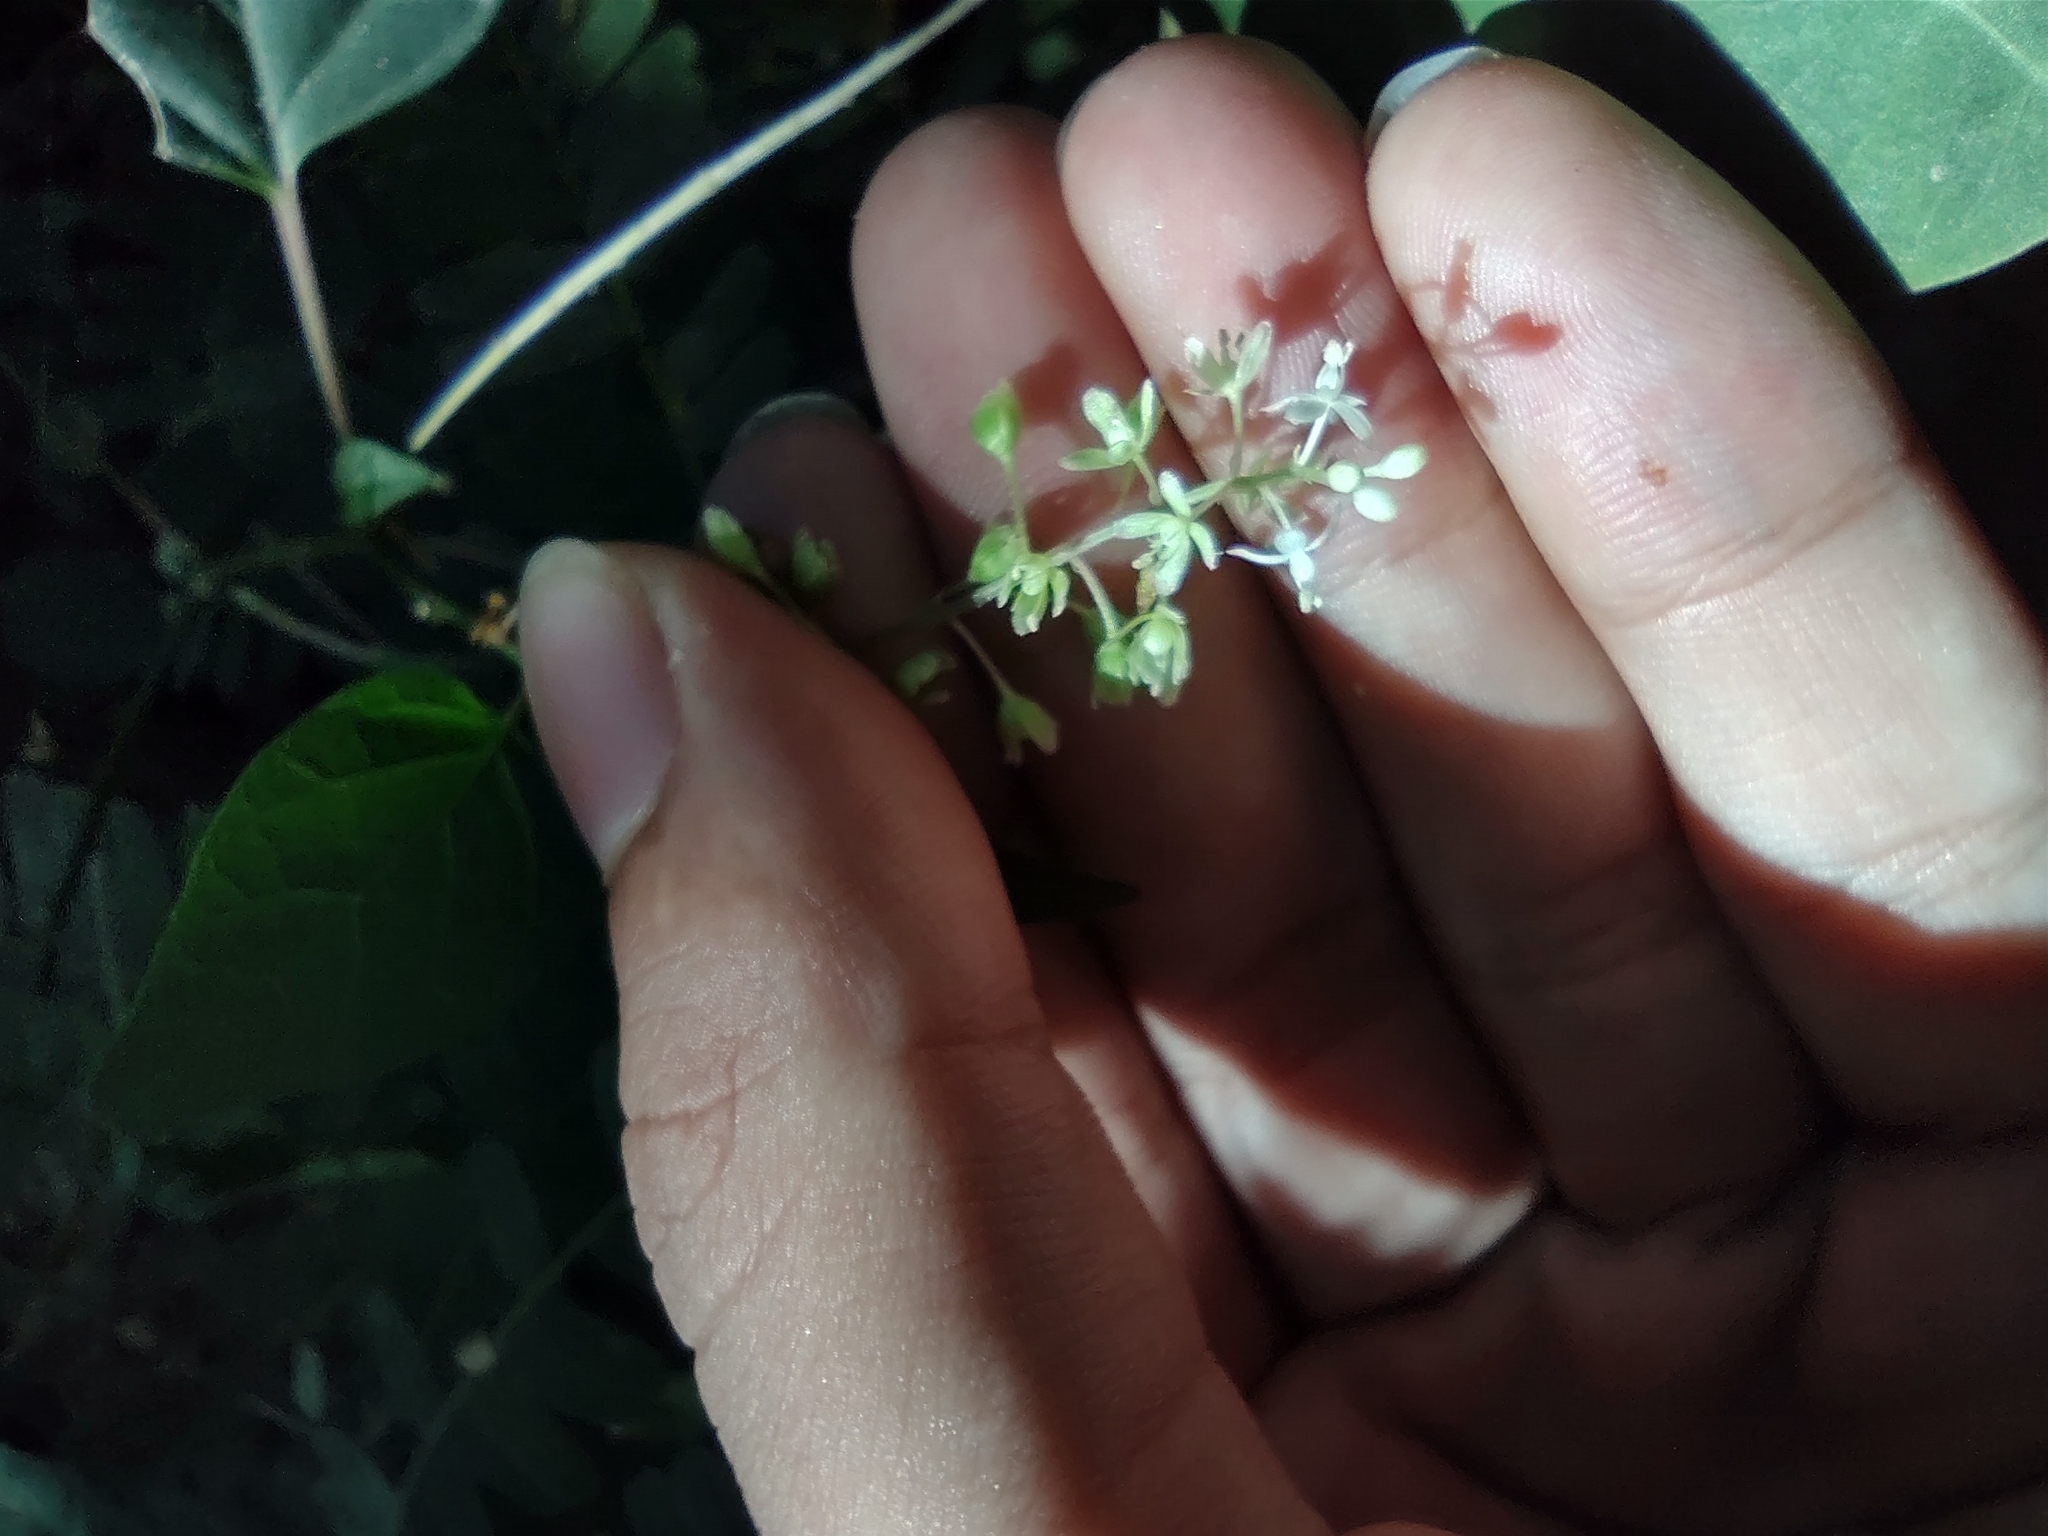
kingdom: Plantae
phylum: Tracheophyta
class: Magnoliopsida
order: Caryophyllales
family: Phytolaccaceae
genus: Rivina
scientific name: Rivina humilis
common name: Rougeplant
